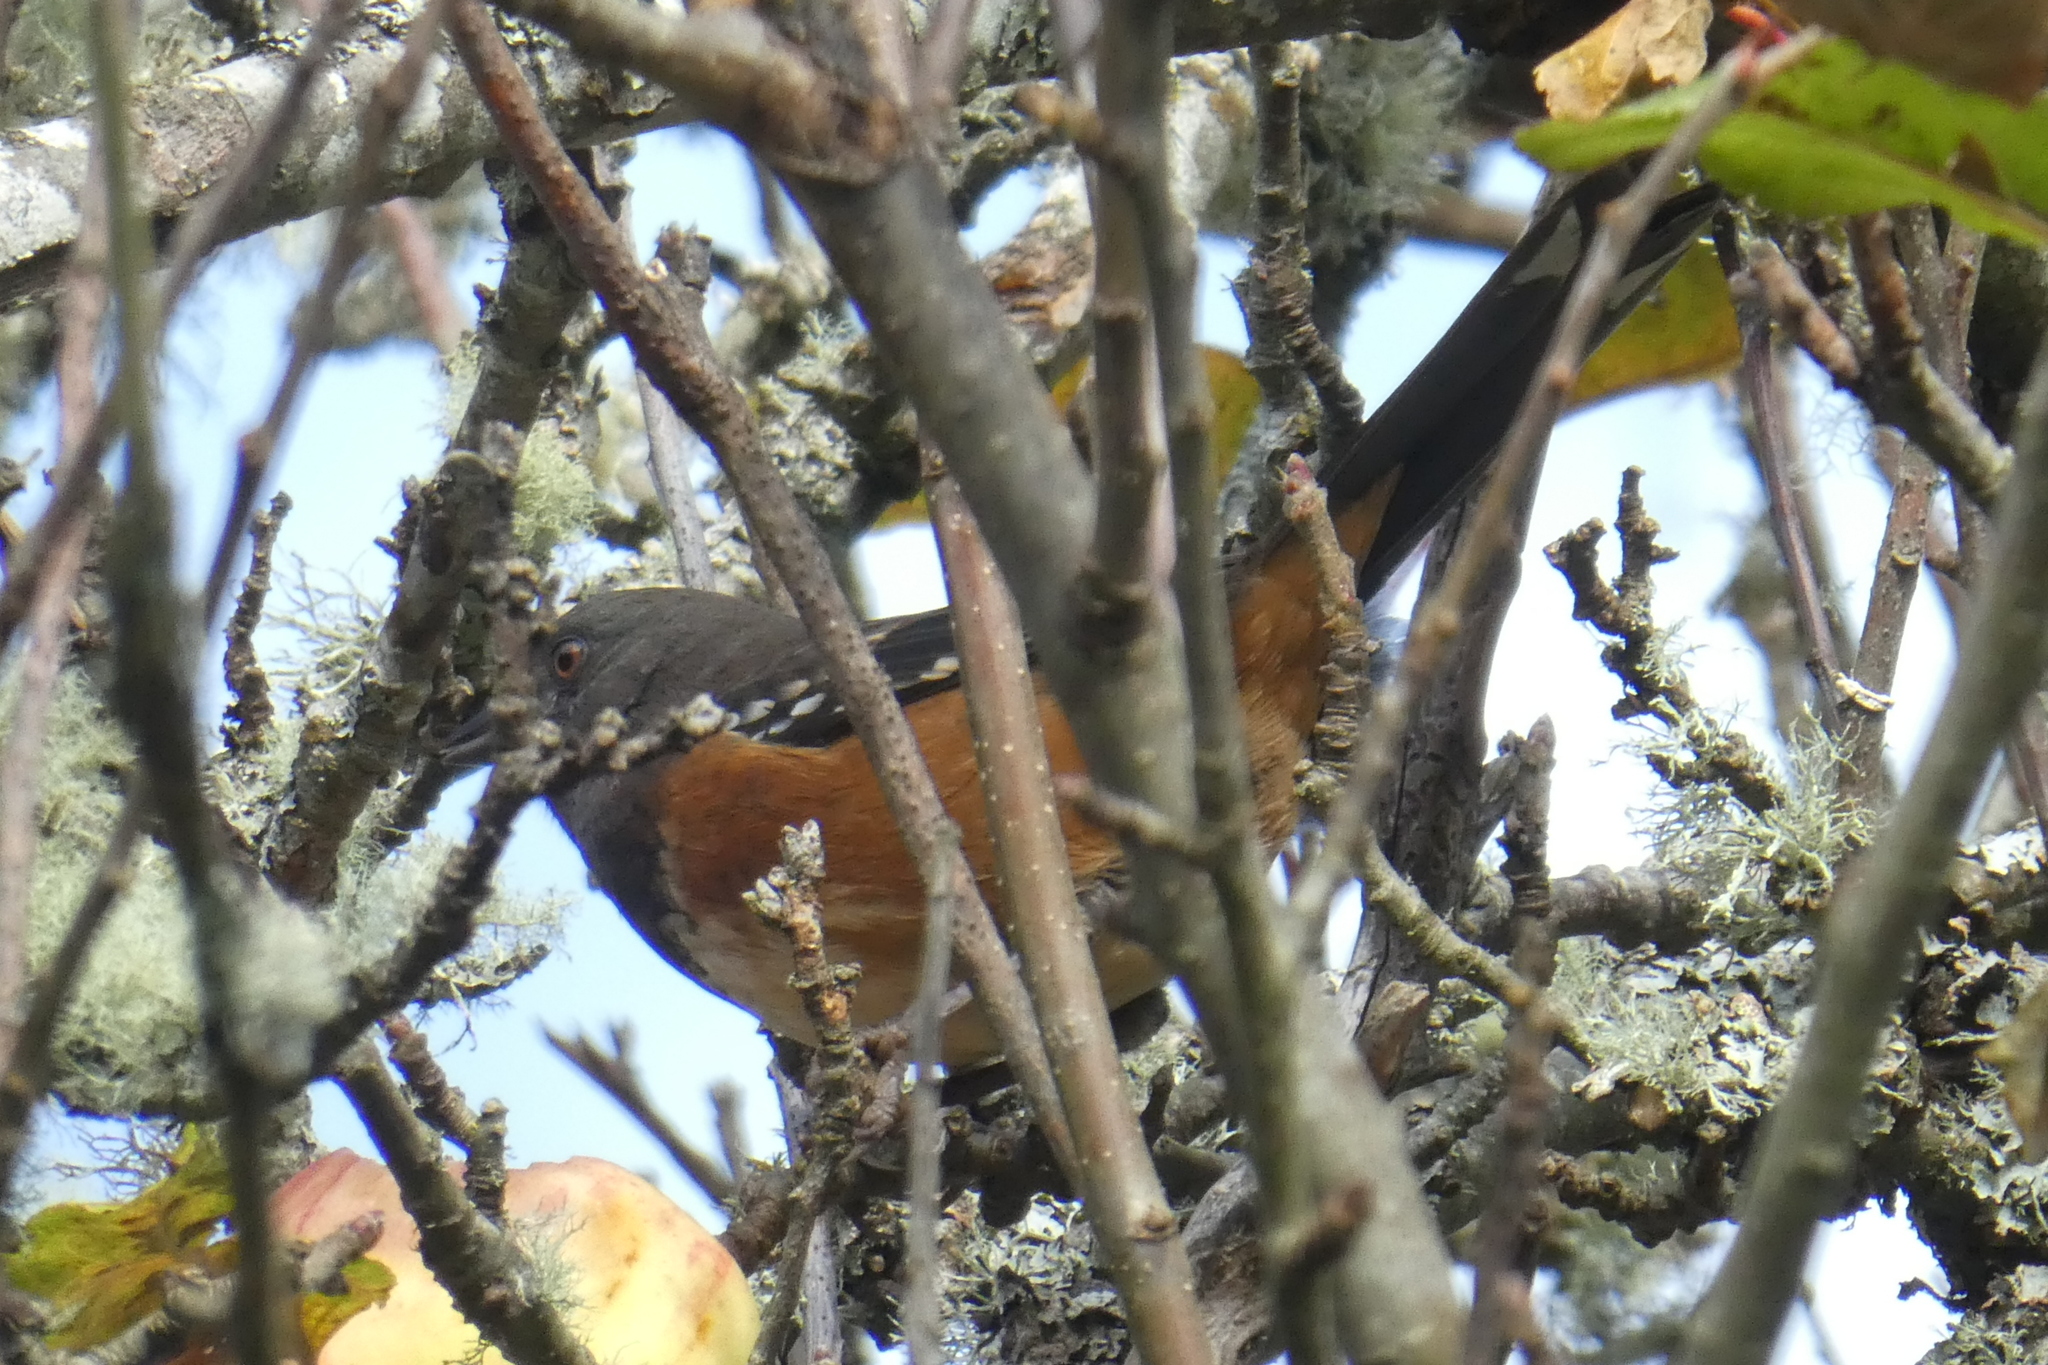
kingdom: Animalia
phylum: Chordata
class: Aves
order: Passeriformes
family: Passerellidae
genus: Pipilo
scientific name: Pipilo maculatus
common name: Spotted towhee
